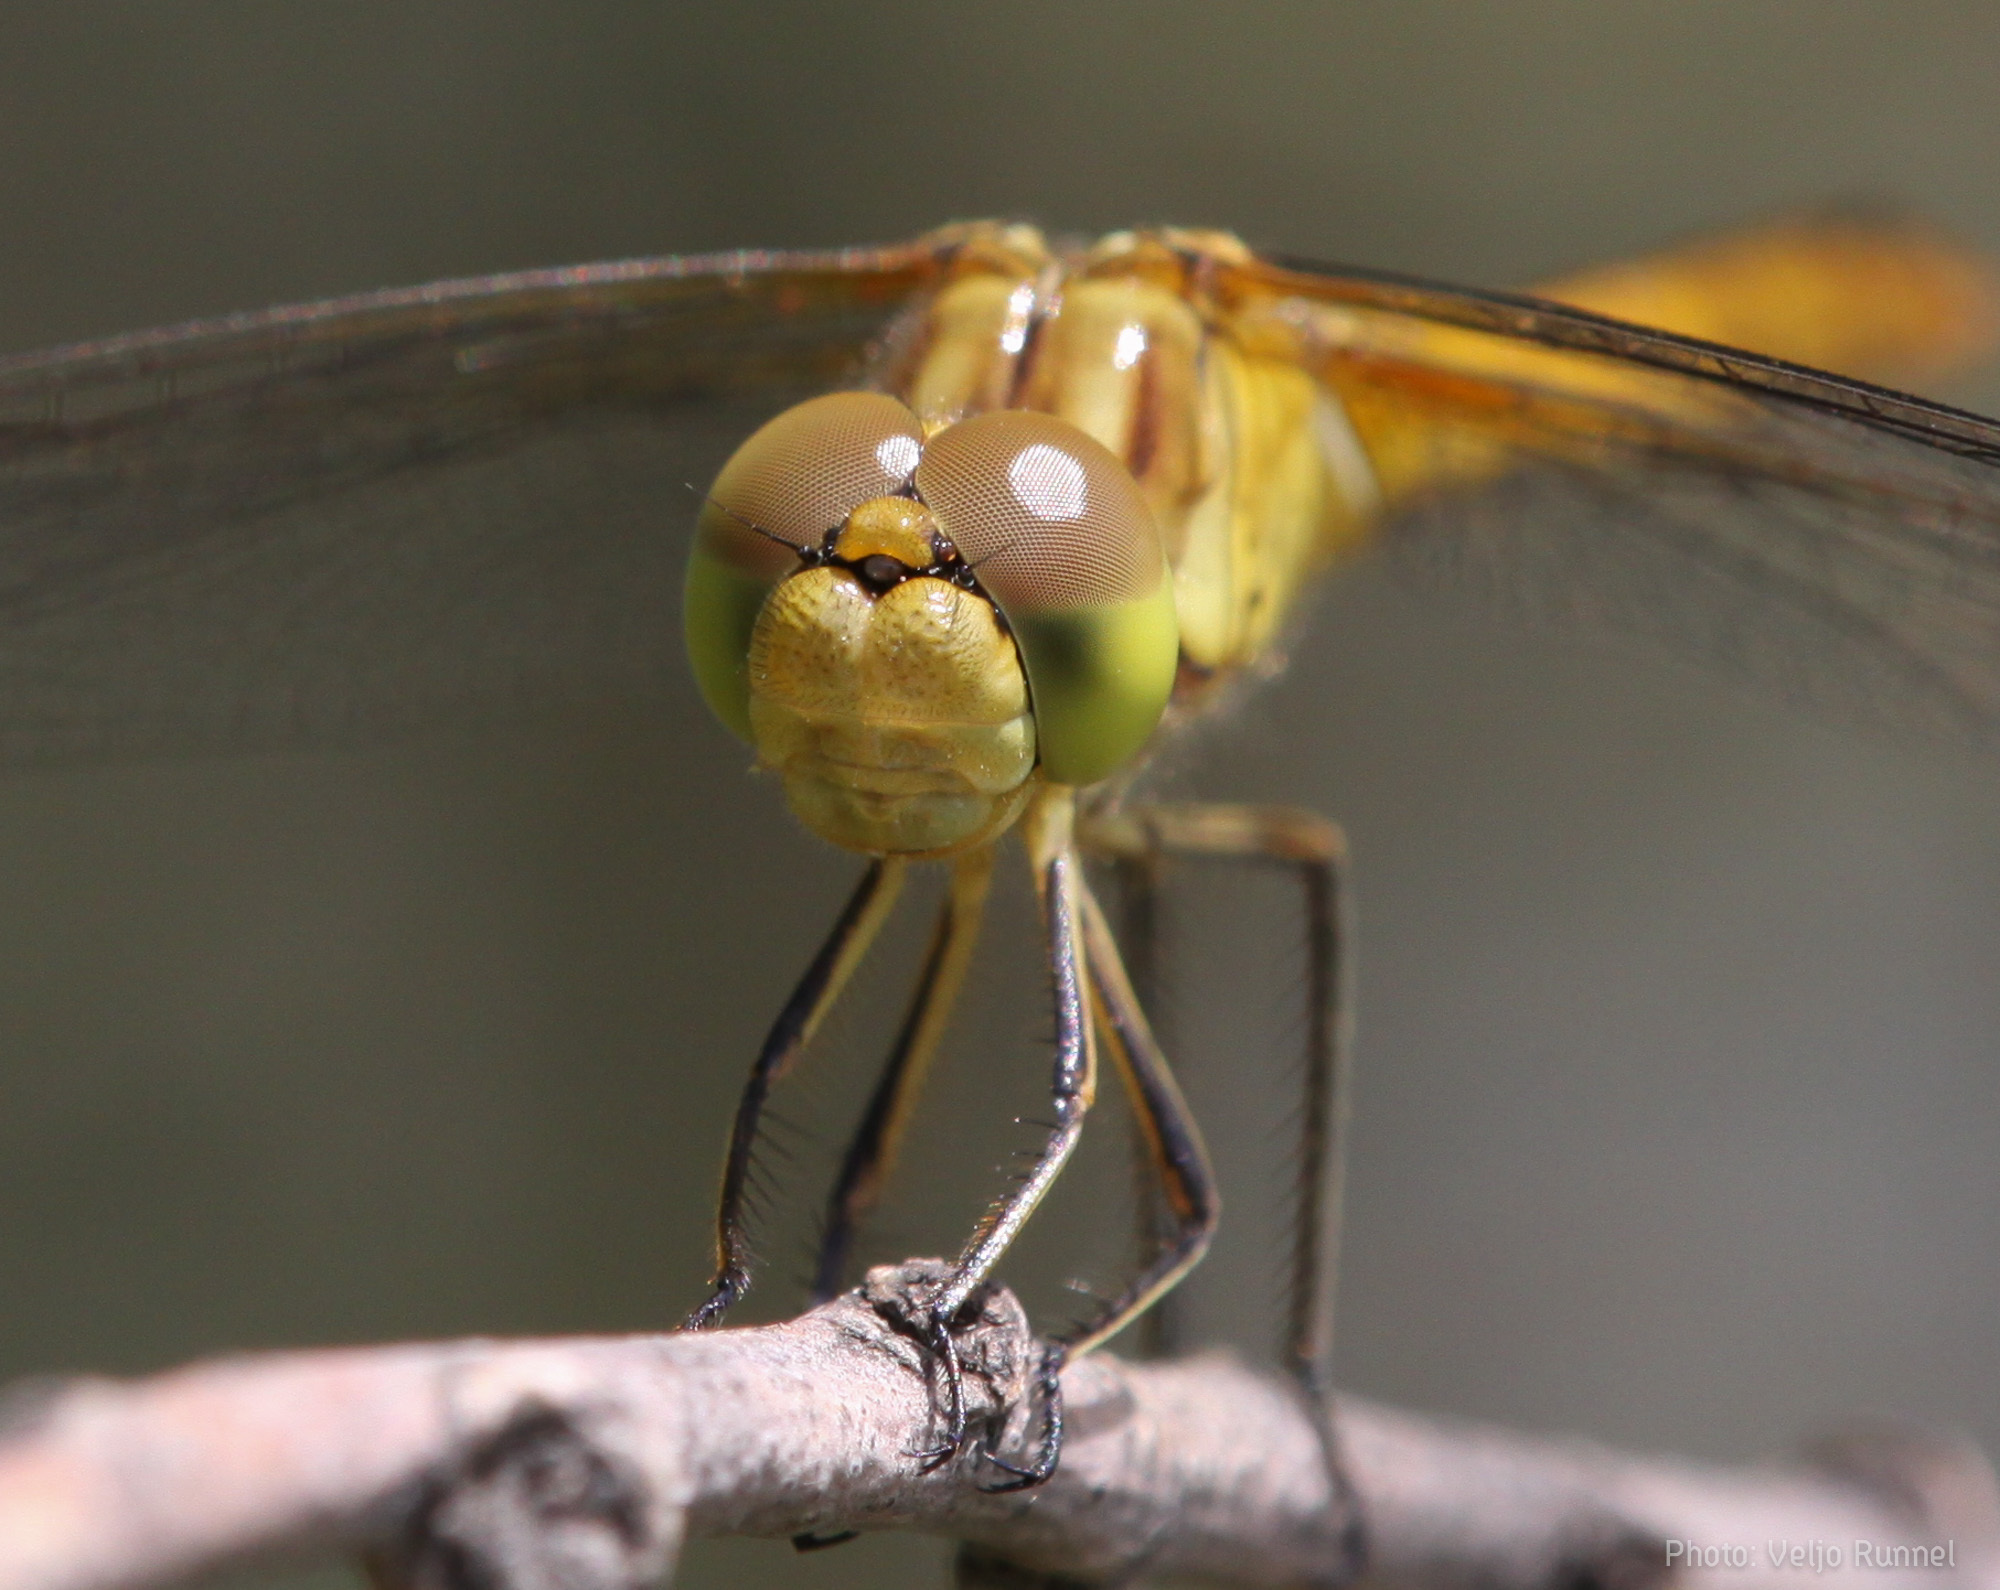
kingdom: Animalia
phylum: Arthropoda
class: Insecta
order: Odonata
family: Libellulidae
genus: Sympetrum
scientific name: Sympetrum meridionale
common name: Southern darter
